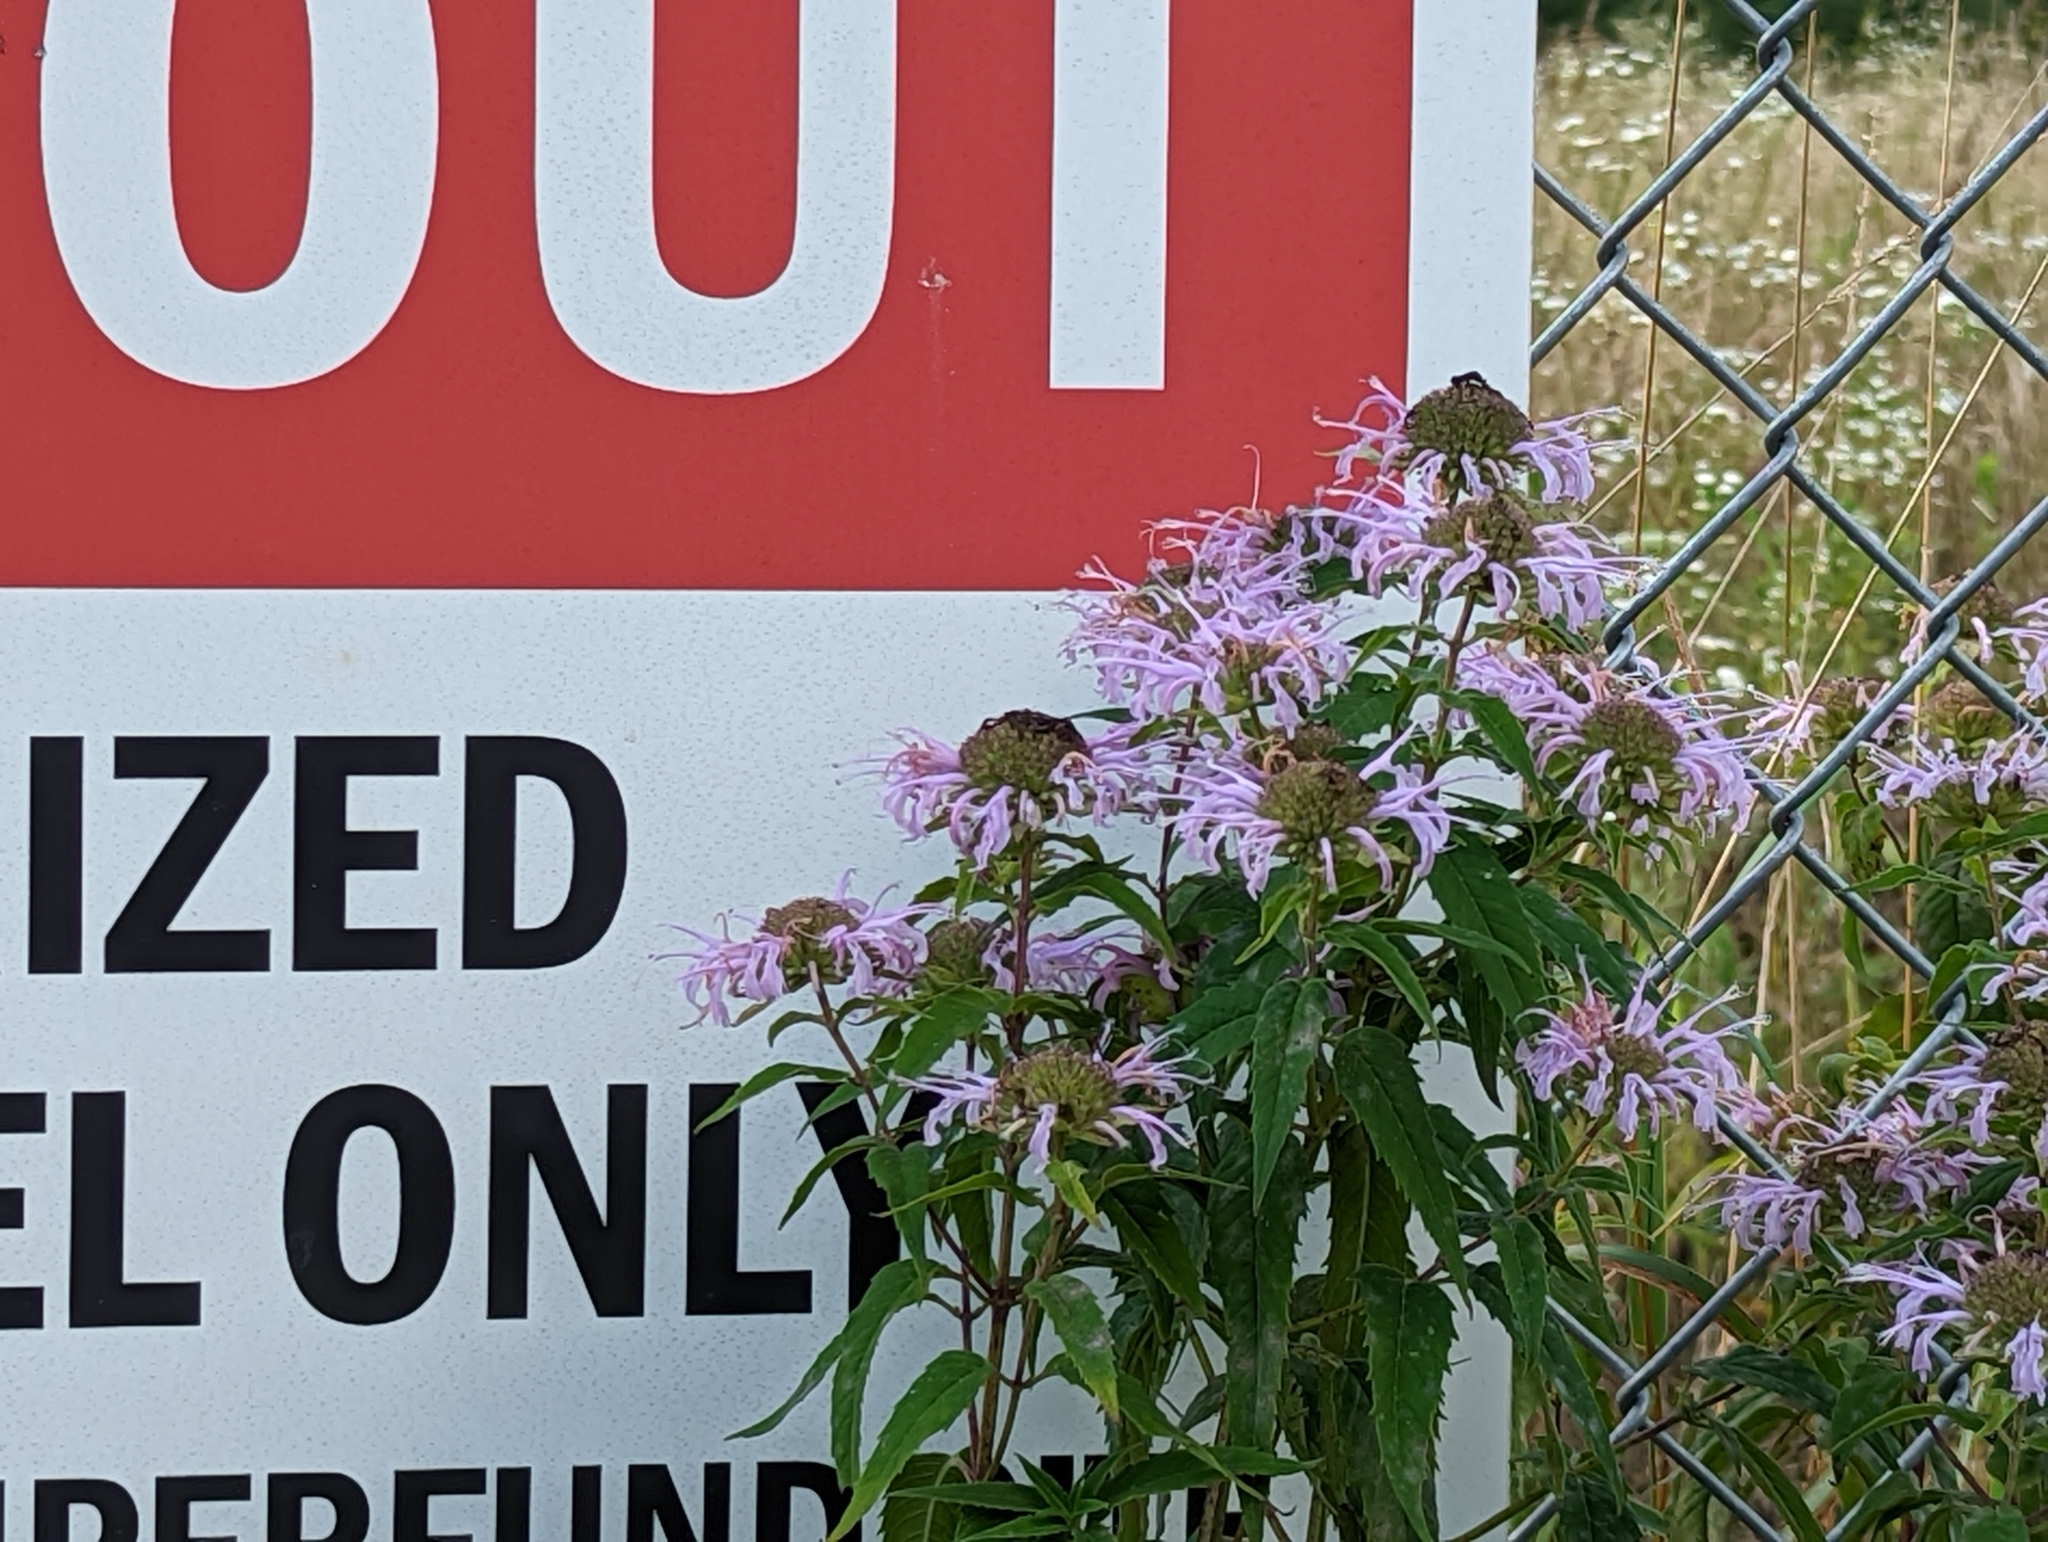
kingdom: Plantae
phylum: Tracheophyta
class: Magnoliopsida
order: Lamiales
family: Lamiaceae
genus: Monarda
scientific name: Monarda fistulosa
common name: Purple beebalm
